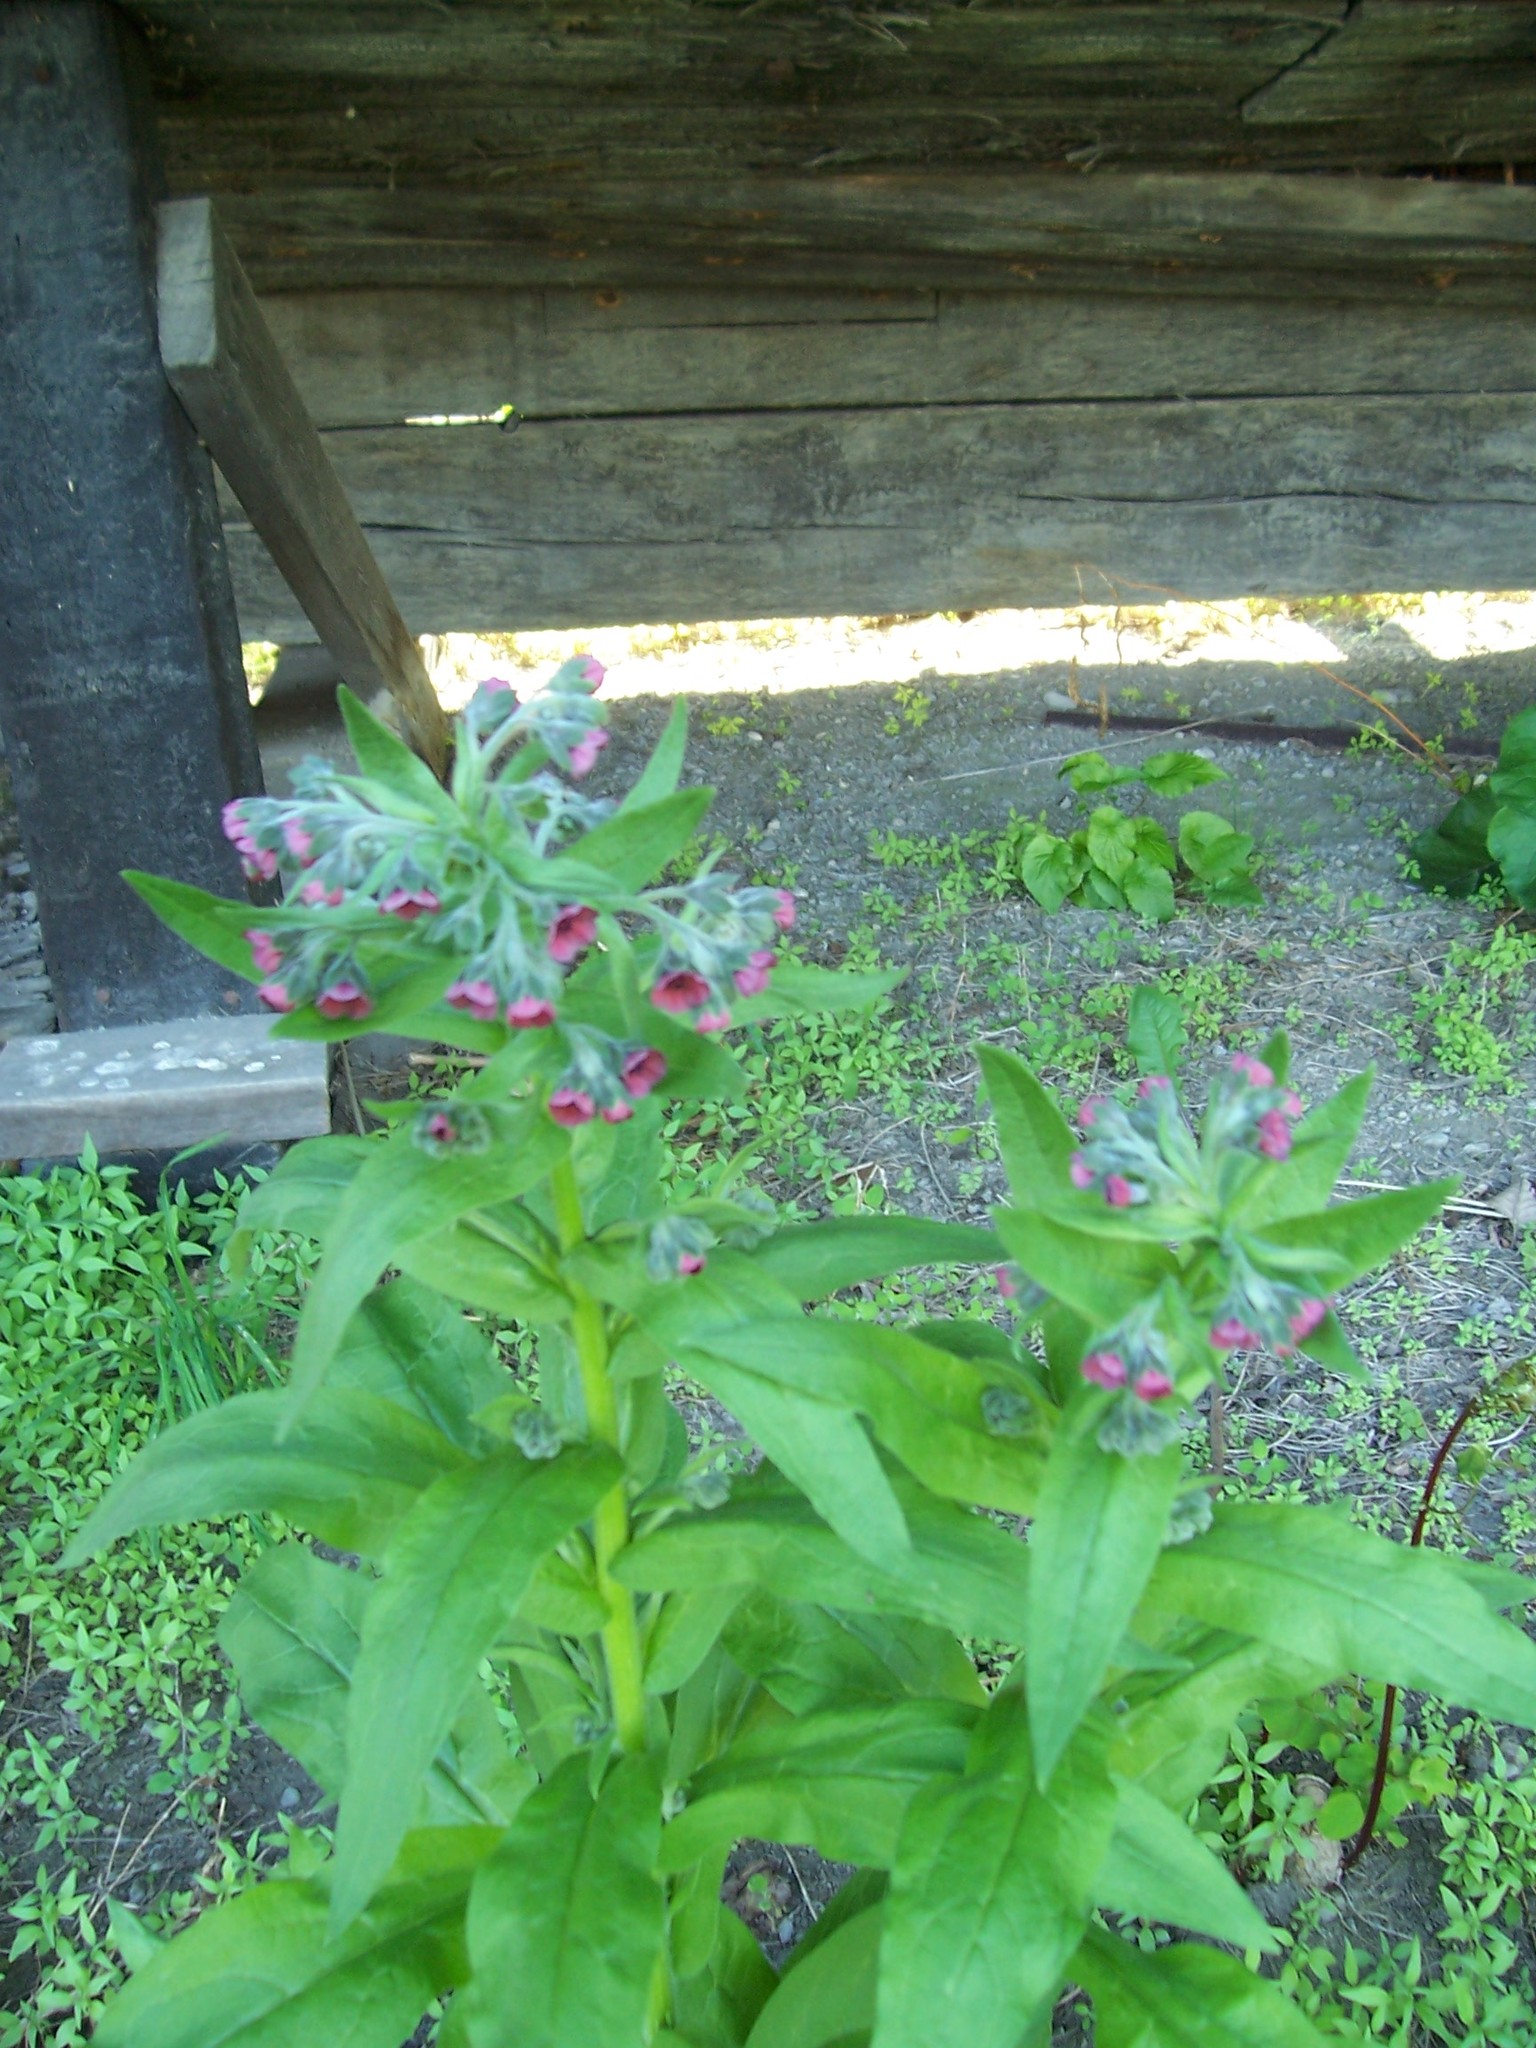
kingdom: Plantae
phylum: Tracheophyta
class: Magnoliopsida
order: Boraginales
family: Boraginaceae
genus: Symphytum
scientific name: Symphytum officinale
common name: Common comfrey
